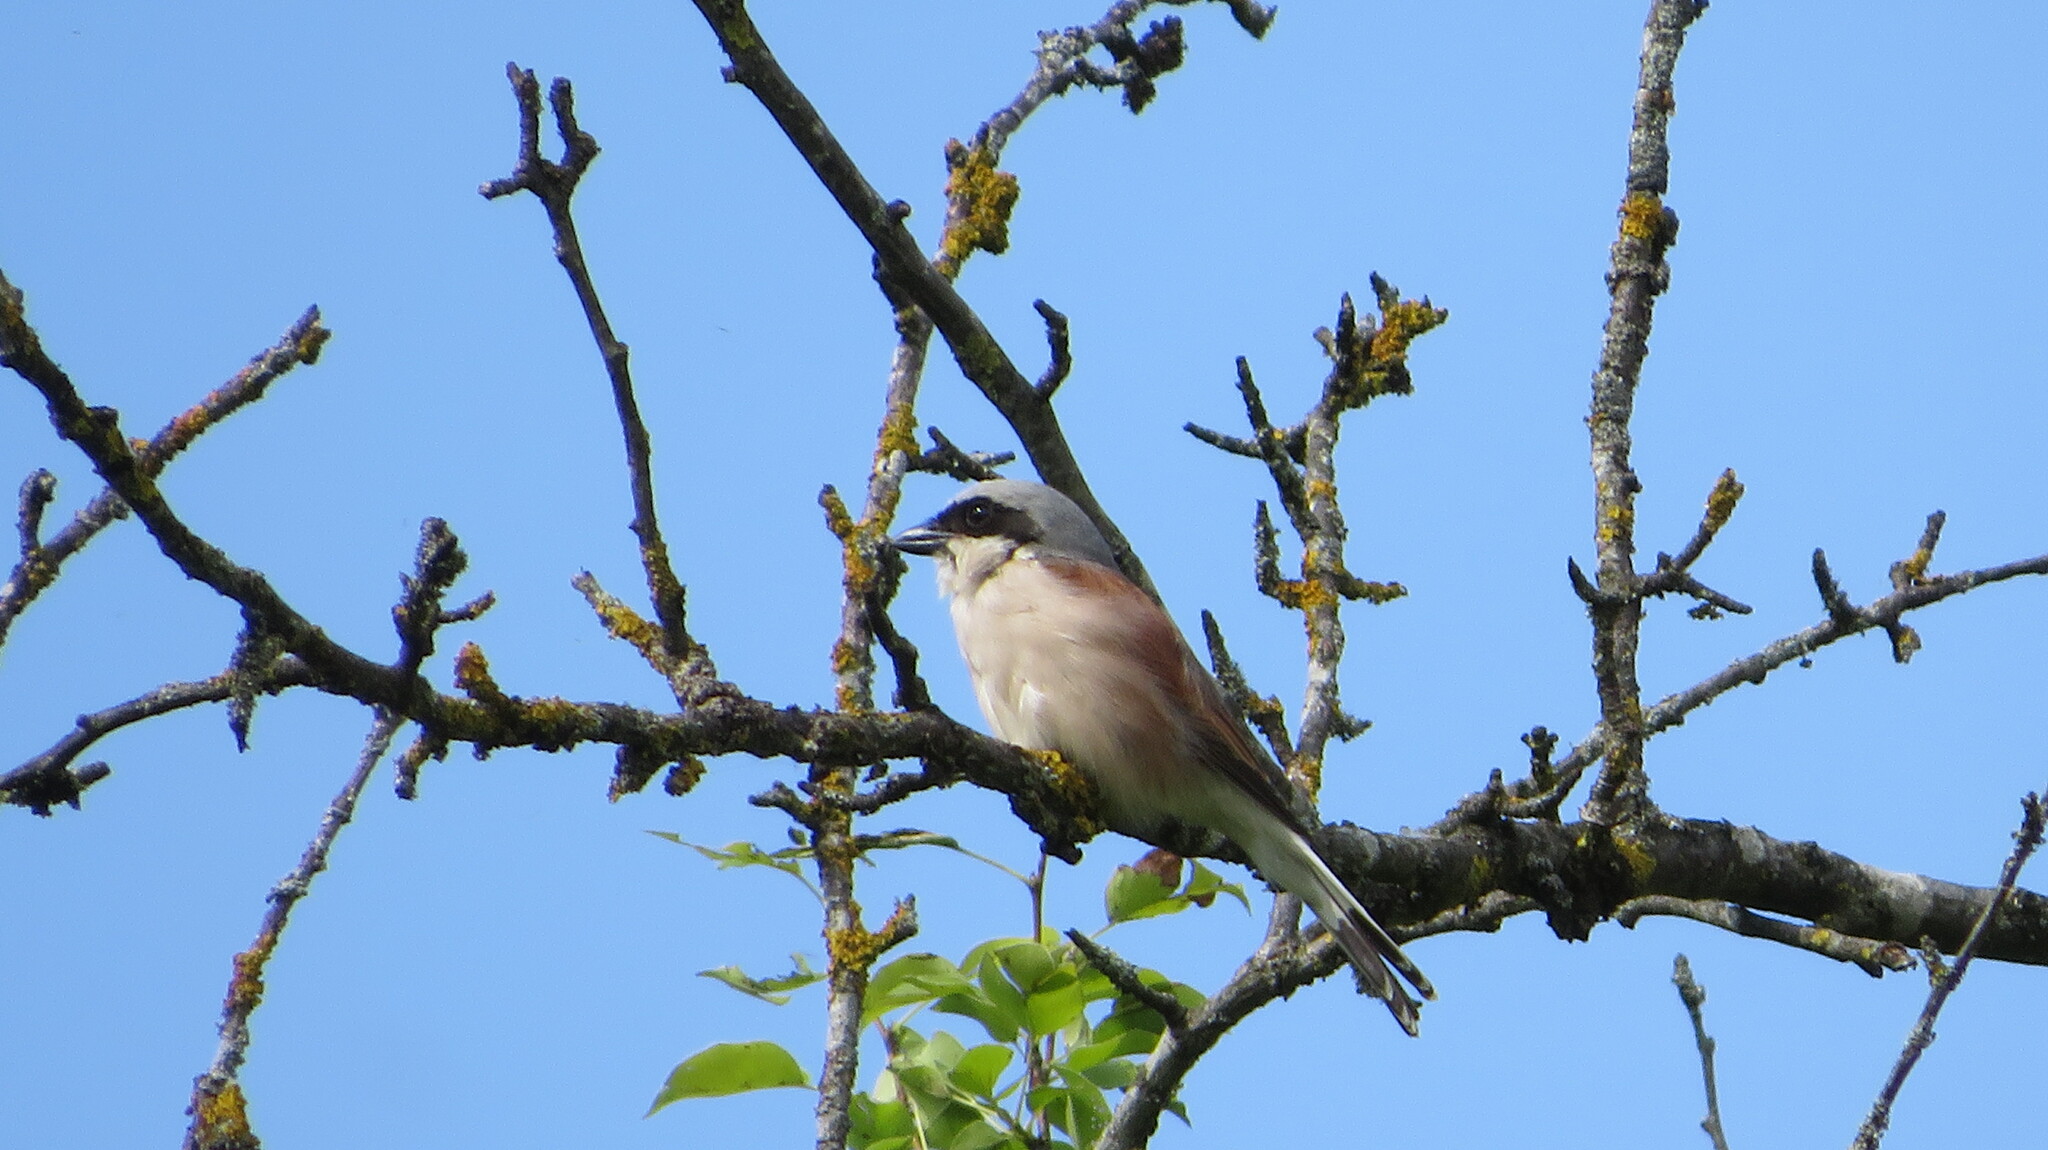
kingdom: Animalia
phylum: Chordata
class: Aves
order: Passeriformes
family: Laniidae
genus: Lanius
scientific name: Lanius collurio
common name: Red-backed shrike
